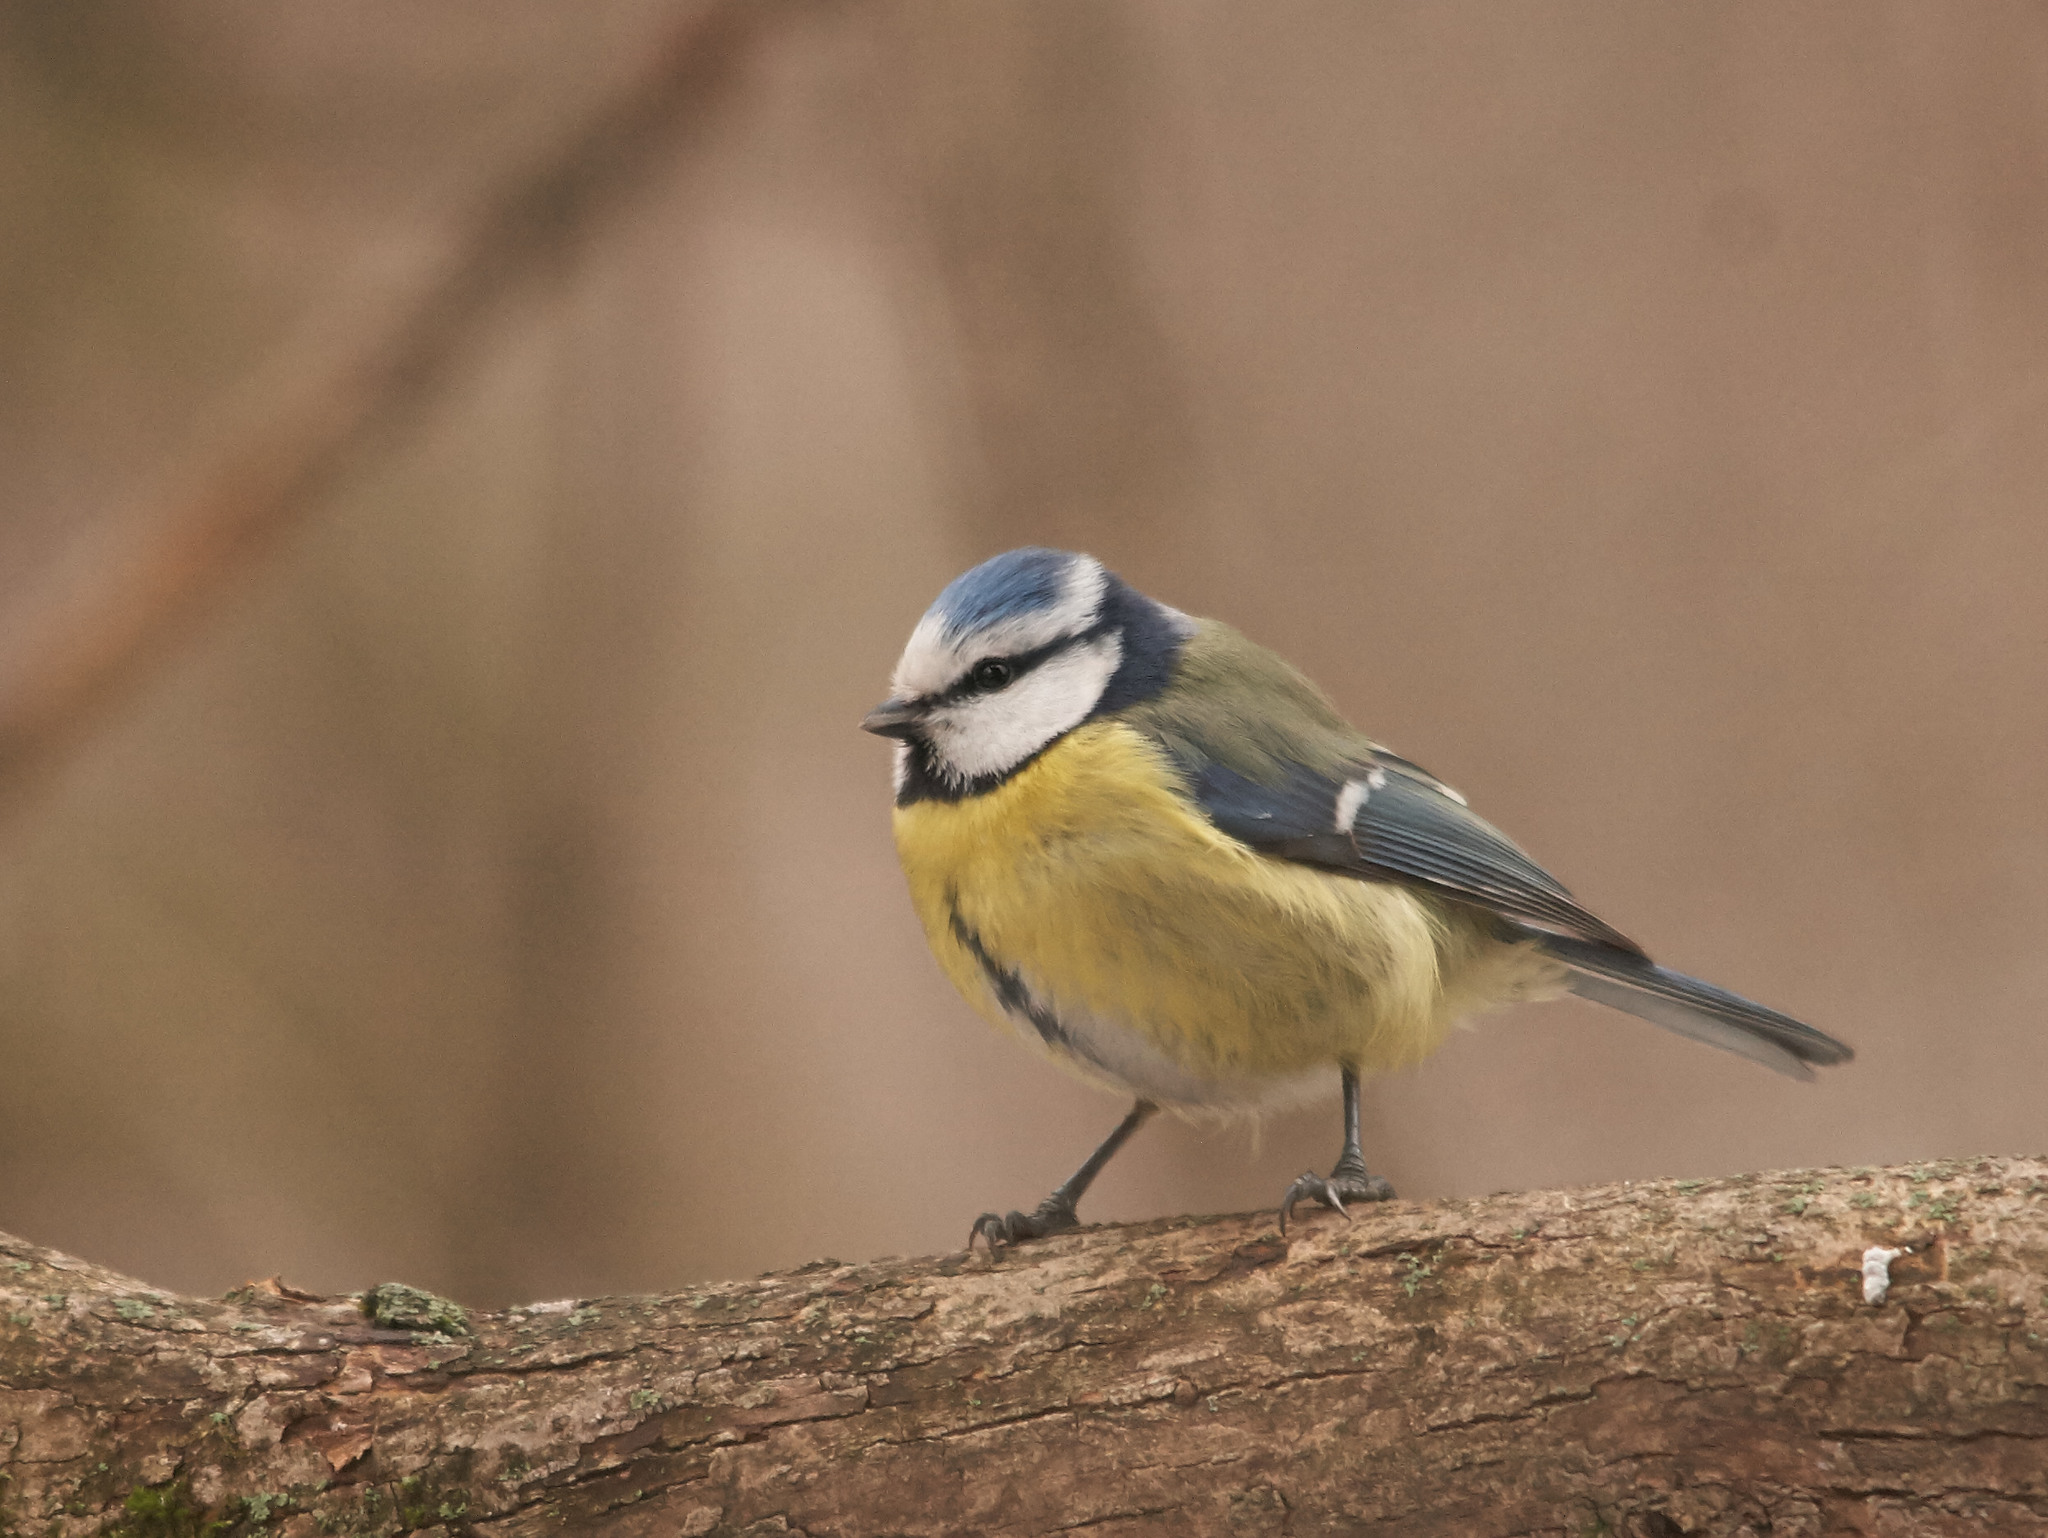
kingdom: Animalia
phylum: Chordata
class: Aves
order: Passeriformes
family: Paridae
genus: Cyanistes
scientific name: Cyanistes caeruleus
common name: Eurasian blue tit
